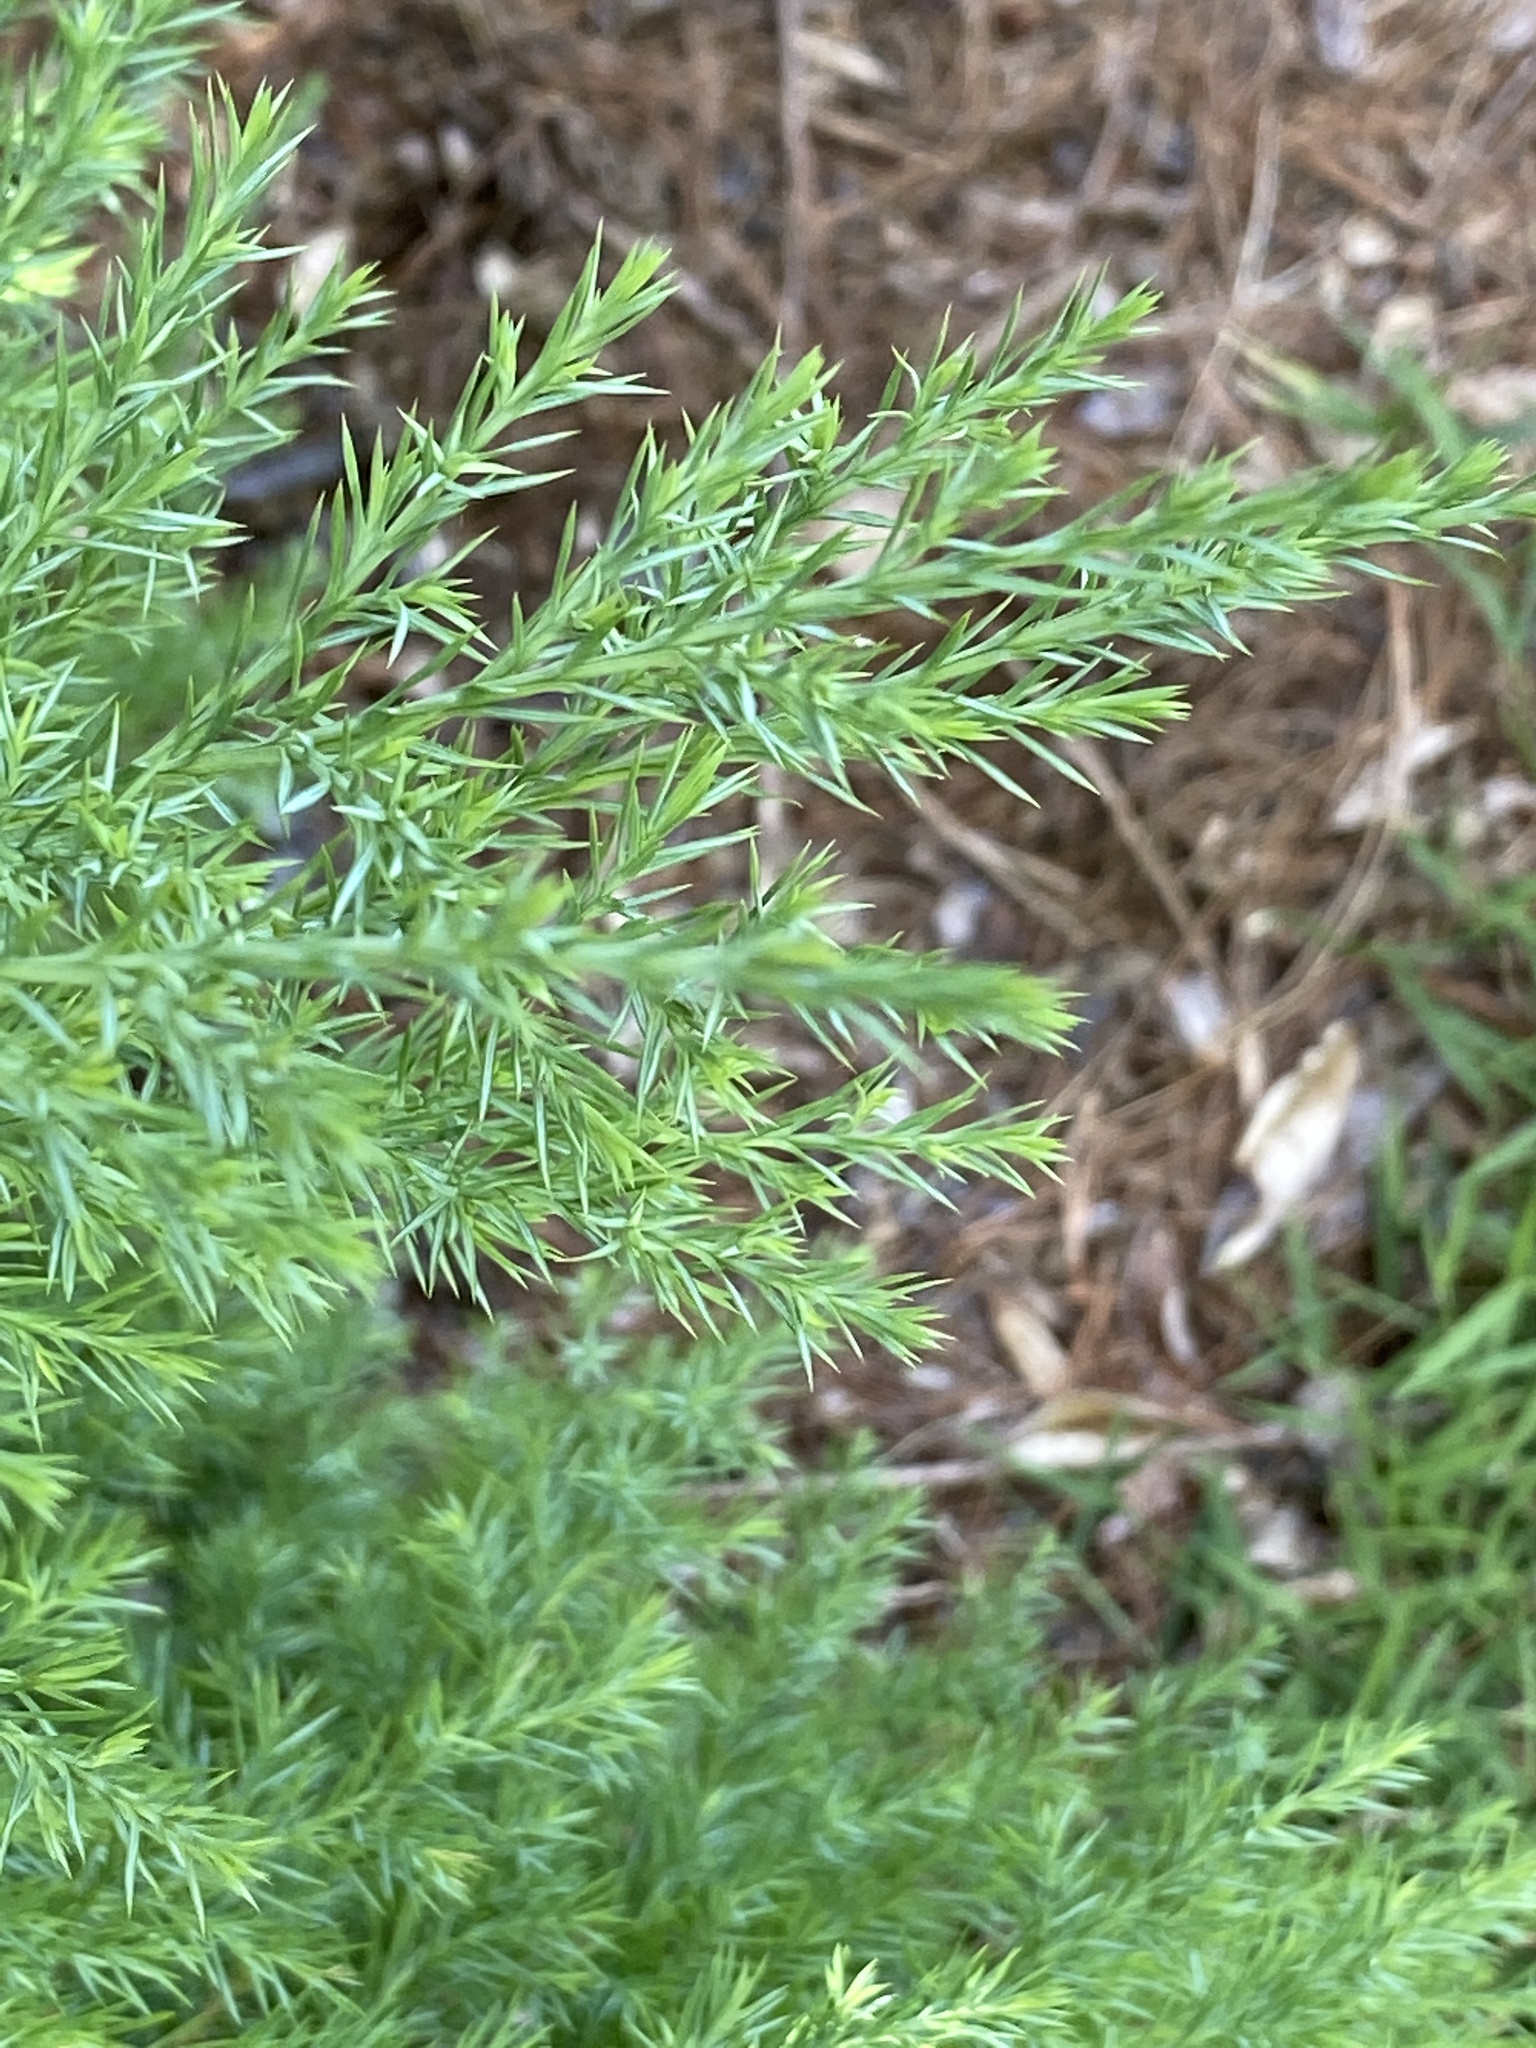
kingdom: Plantae
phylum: Tracheophyta
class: Pinopsida
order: Pinales
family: Cupressaceae
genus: Juniperus
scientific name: Juniperus virginiana
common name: Red juniper
